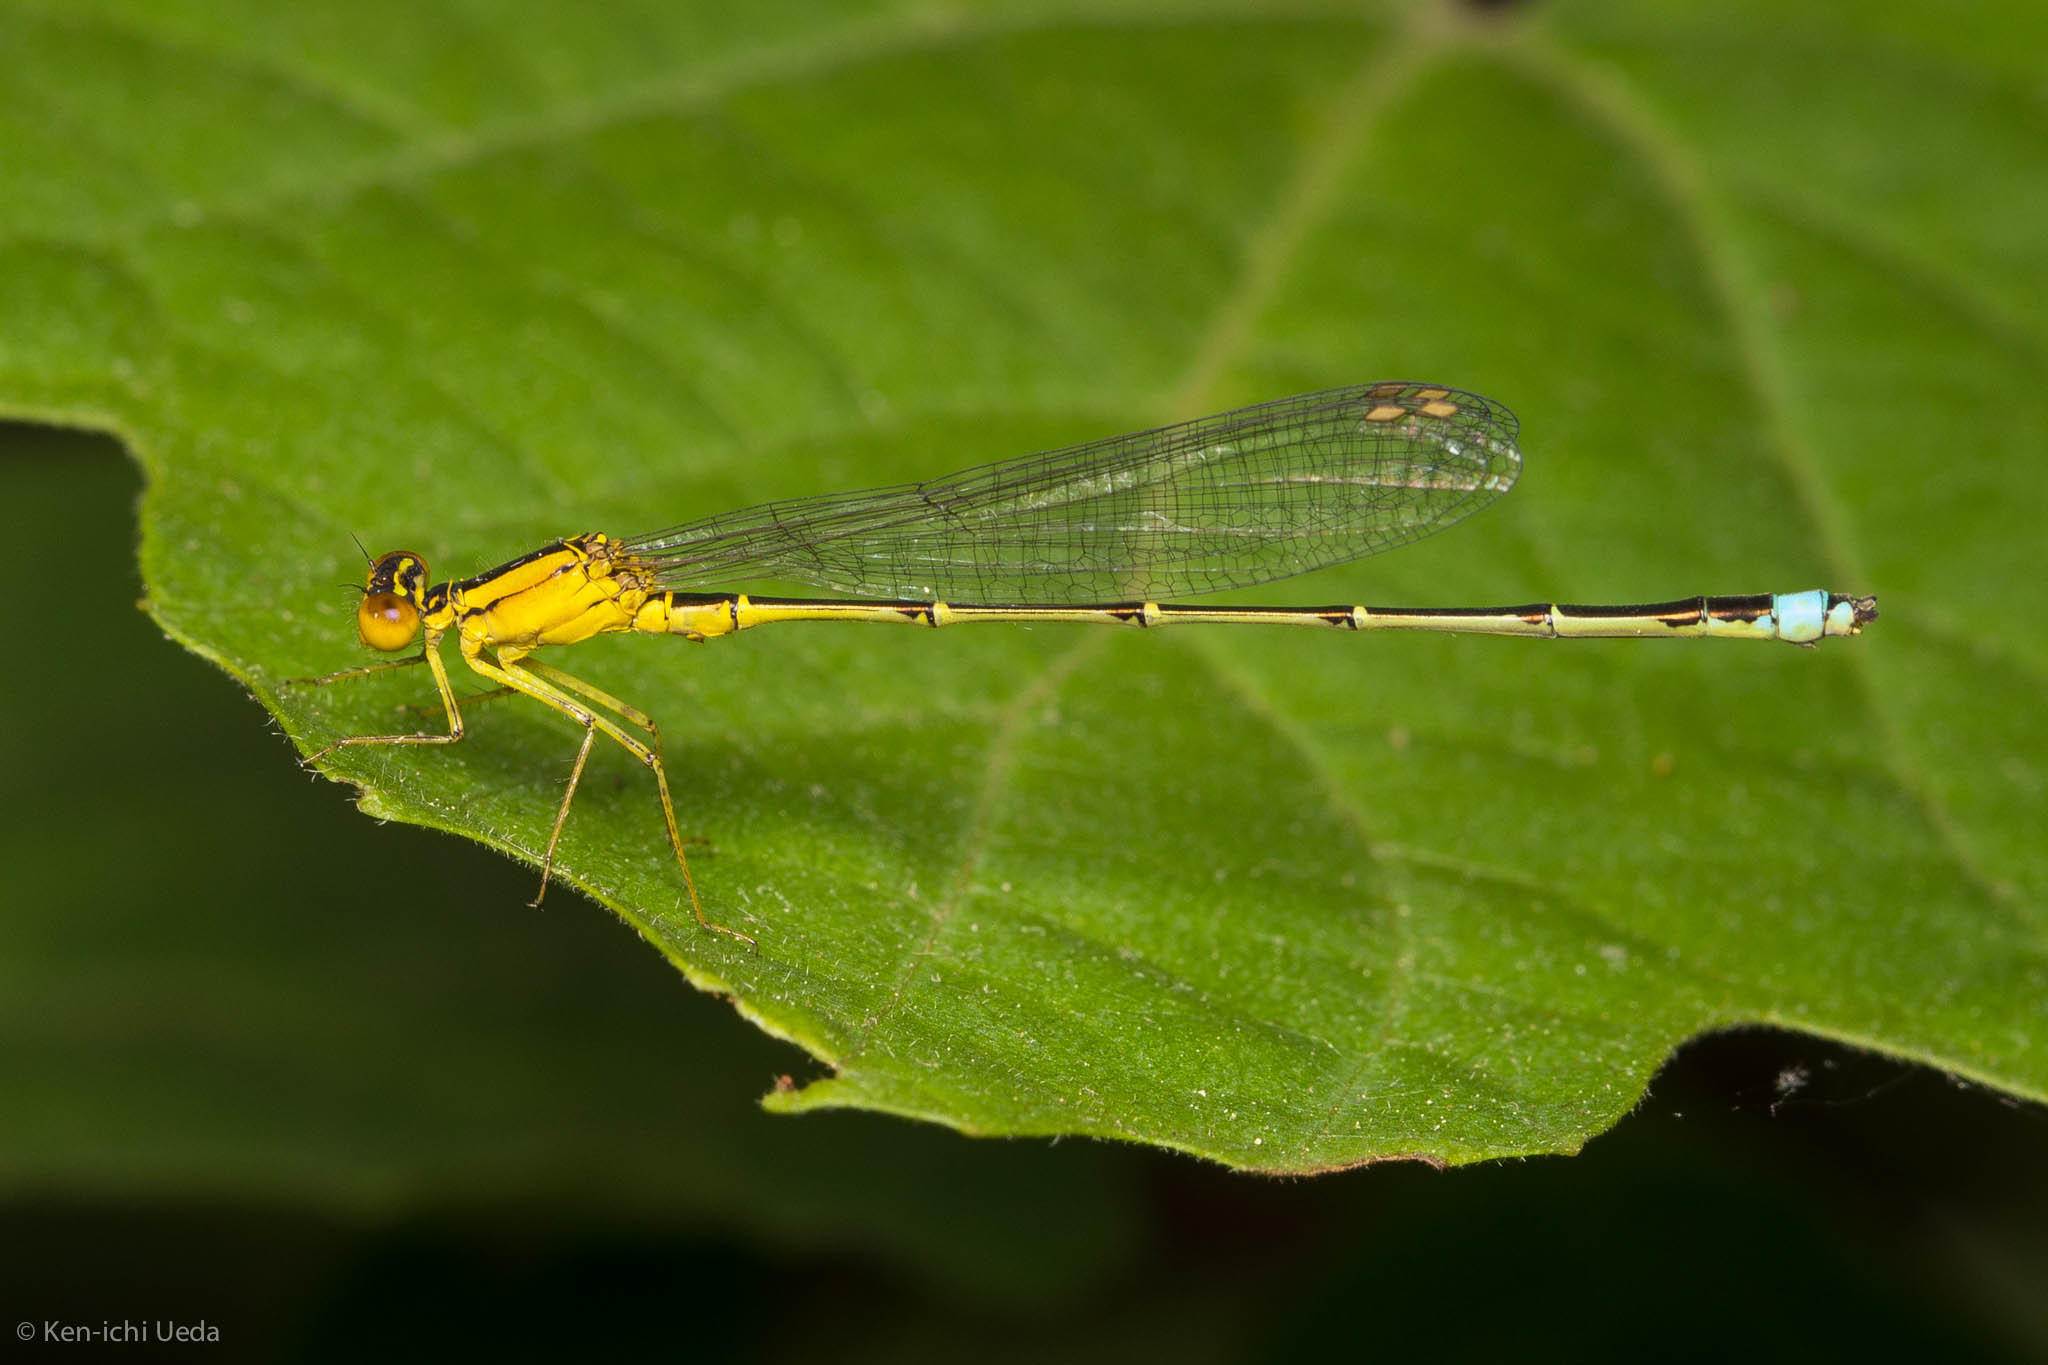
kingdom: Animalia
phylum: Arthropoda
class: Insecta
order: Odonata
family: Coenagrionidae
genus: Enallagma
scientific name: Enallagma vesperum
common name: Vesper bluet
